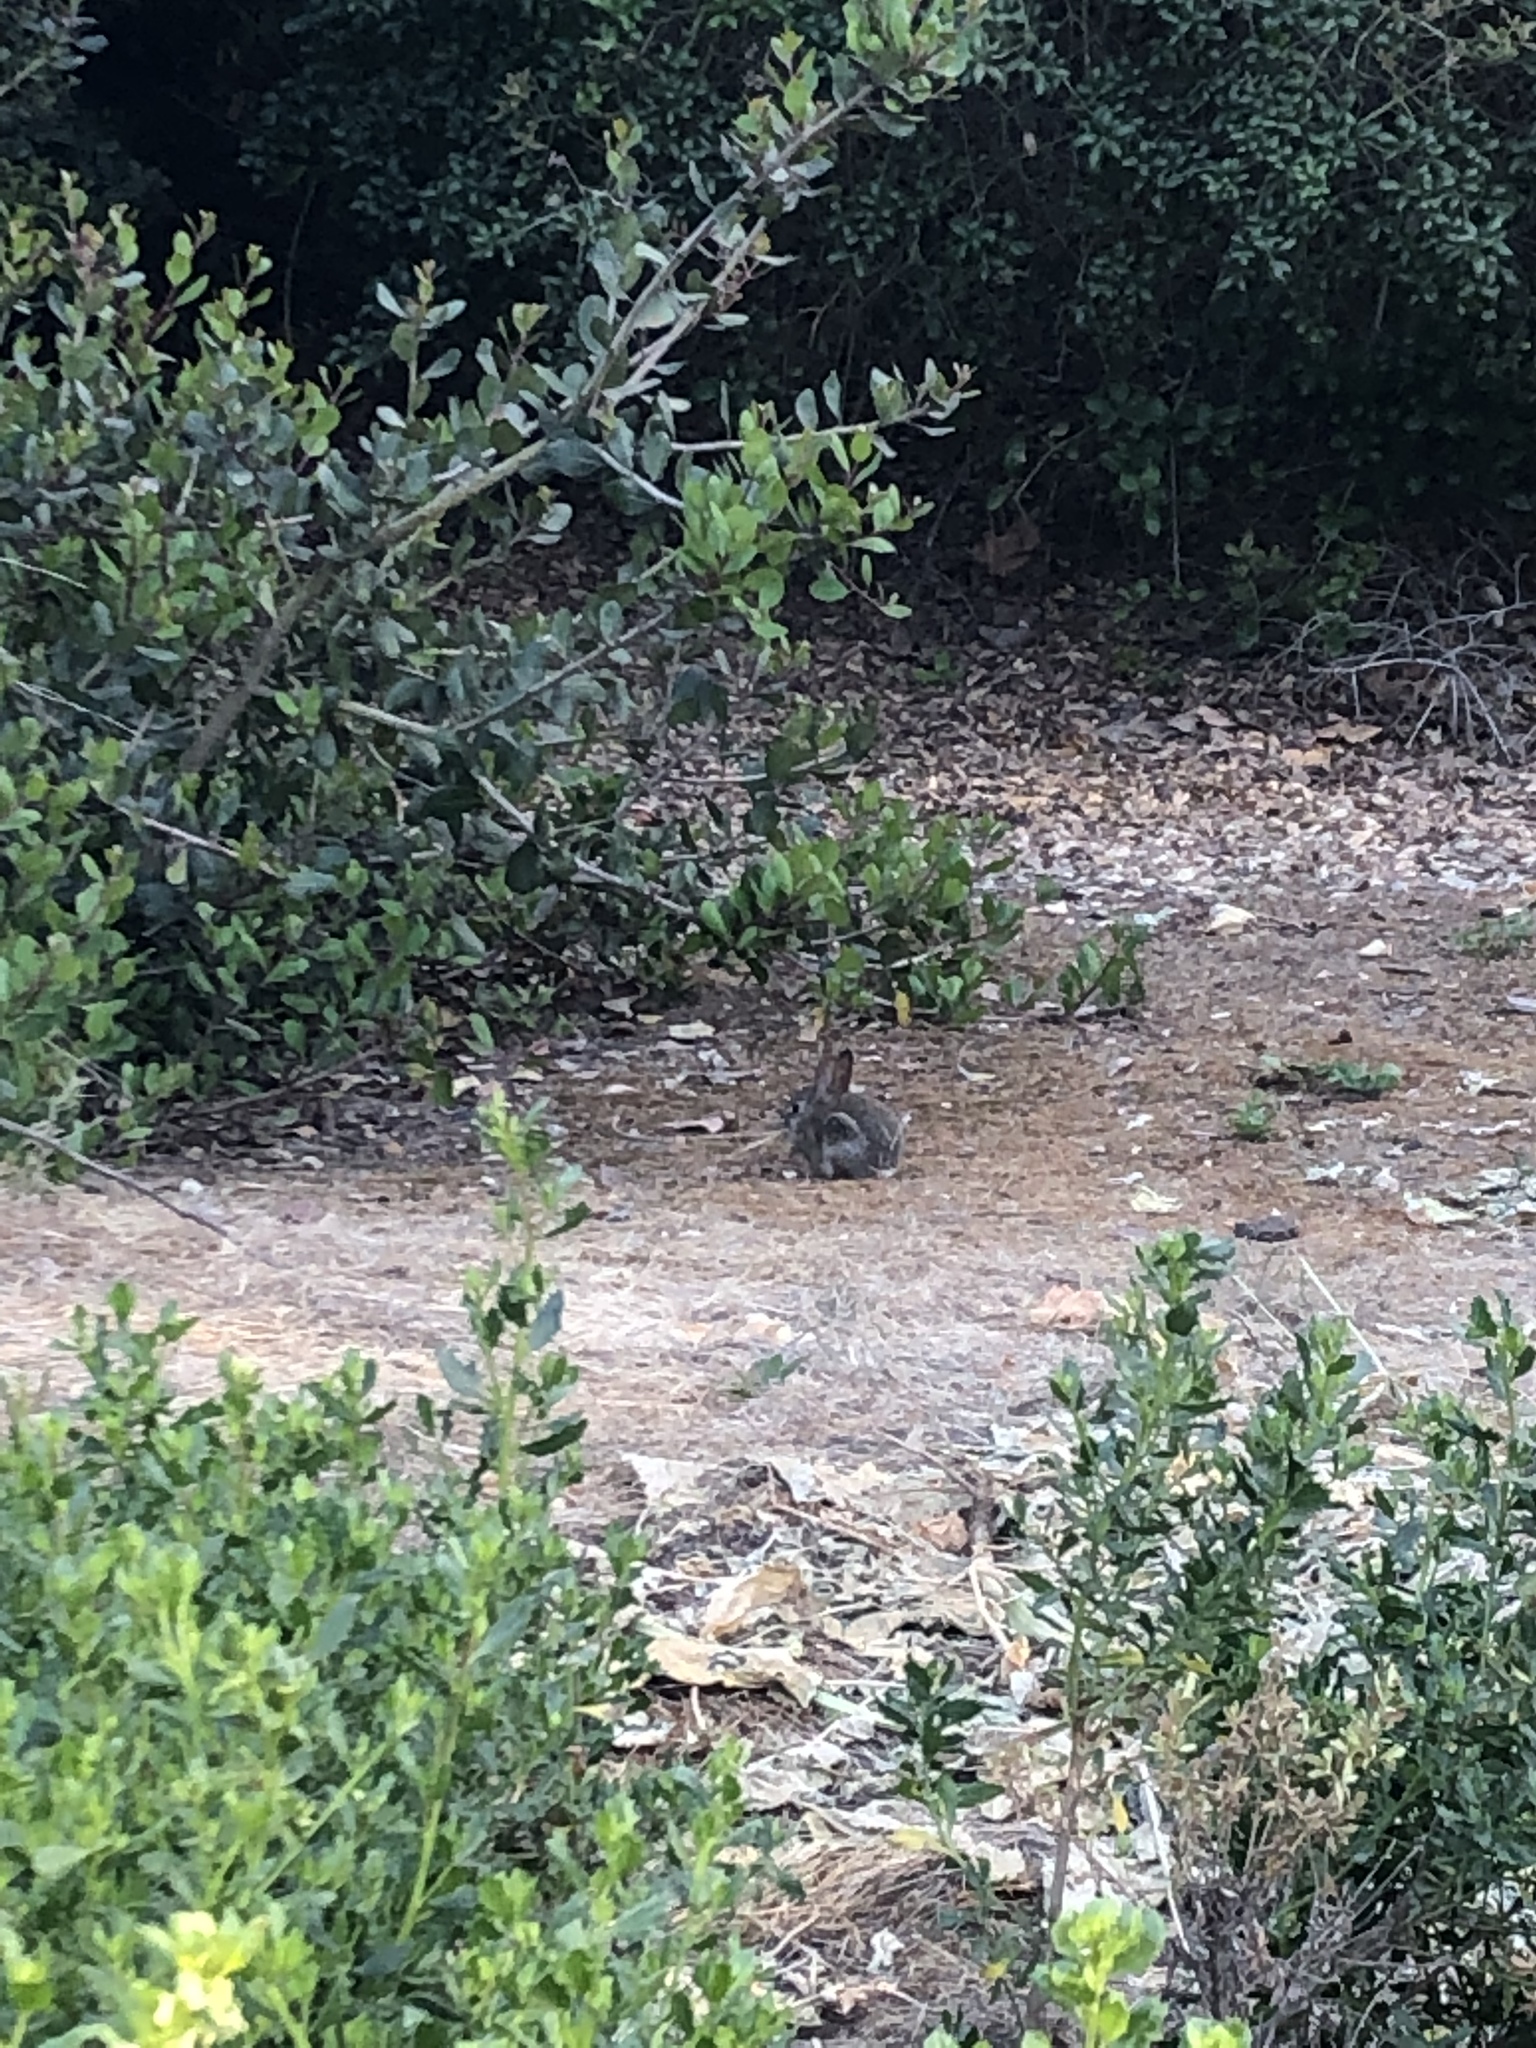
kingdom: Animalia
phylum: Chordata
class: Mammalia
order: Lagomorpha
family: Leporidae
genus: Sylvilagus
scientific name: Sylvilagus audubonii
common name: Desert cottontail
